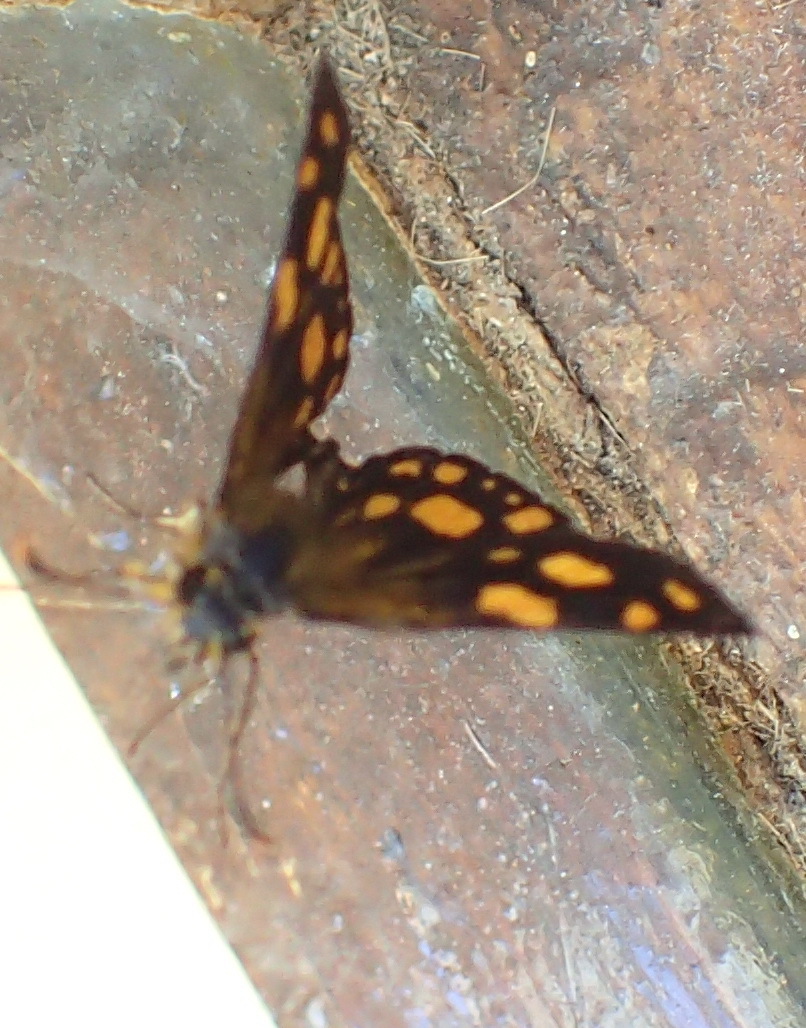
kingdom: Animalia
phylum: Arthropoda
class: Insecta
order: Lepidoptera
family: Hesperiidae
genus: Metisella
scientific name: Metisella metis
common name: Western gold-spotted sylph
